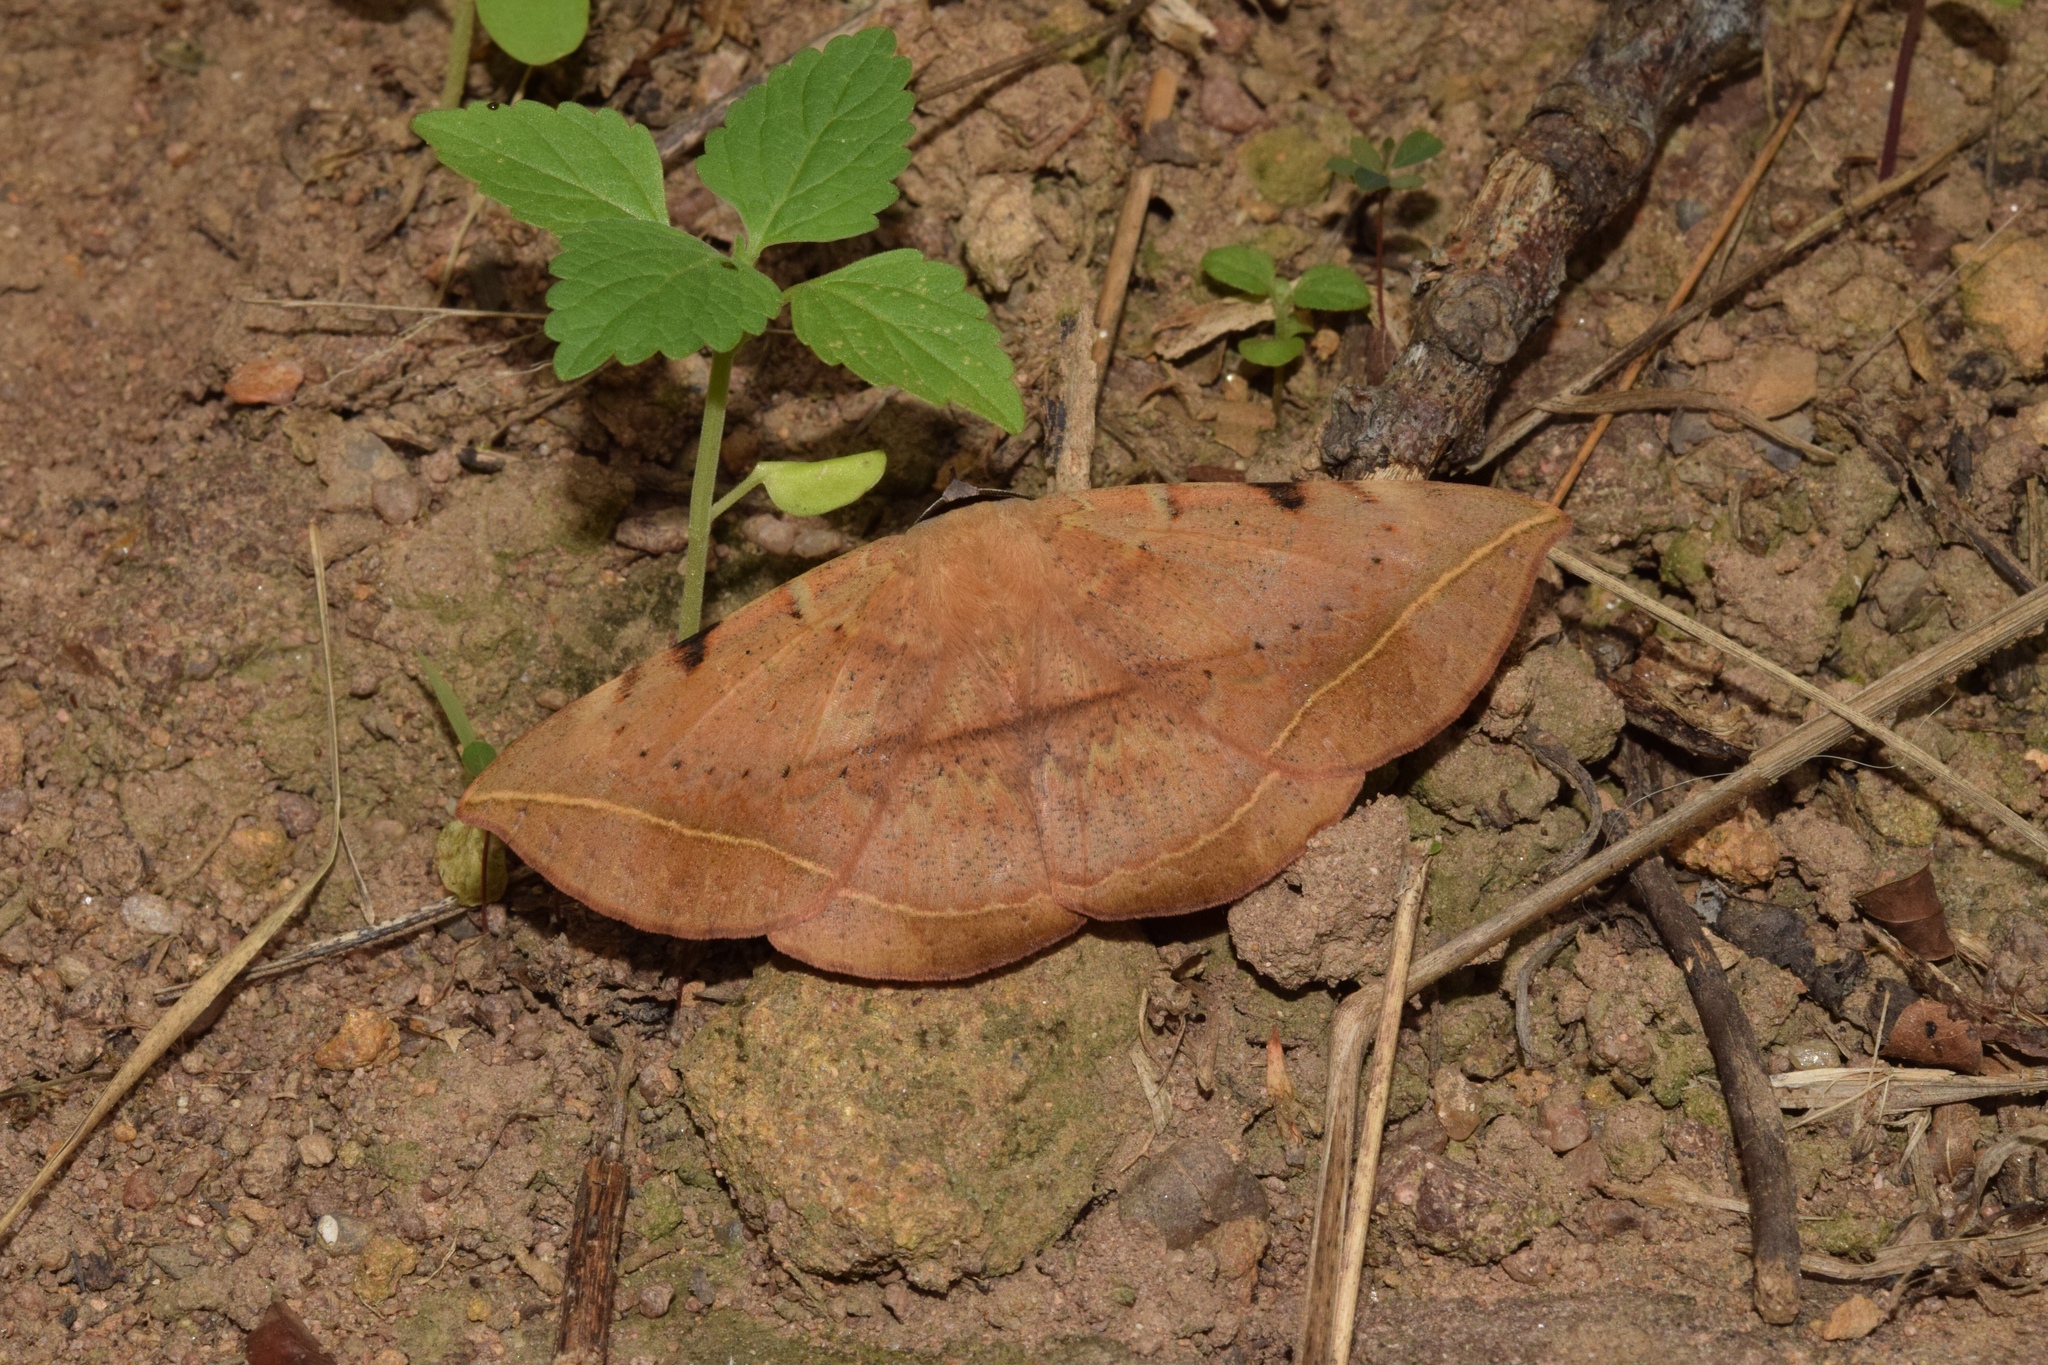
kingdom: Animalia
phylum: Arthropoda
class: Insecta
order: Lepidoptera
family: Erebidae
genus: Hypopyra
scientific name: Hypopyra capensis
